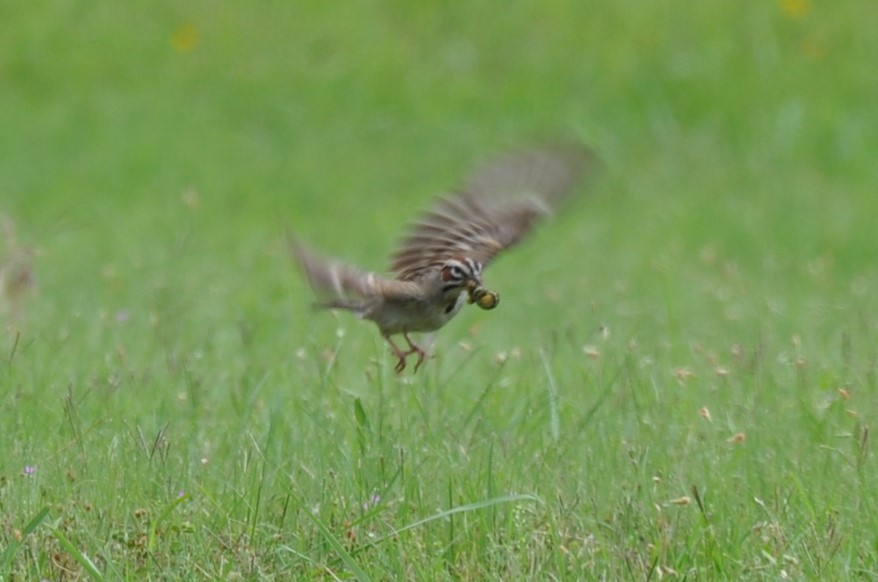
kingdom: Animalia
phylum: Chordata
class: Aves
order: Passeriformes
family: Passerellidae
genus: Chondestes
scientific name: Chondestes grammacus
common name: Lark sparrow
